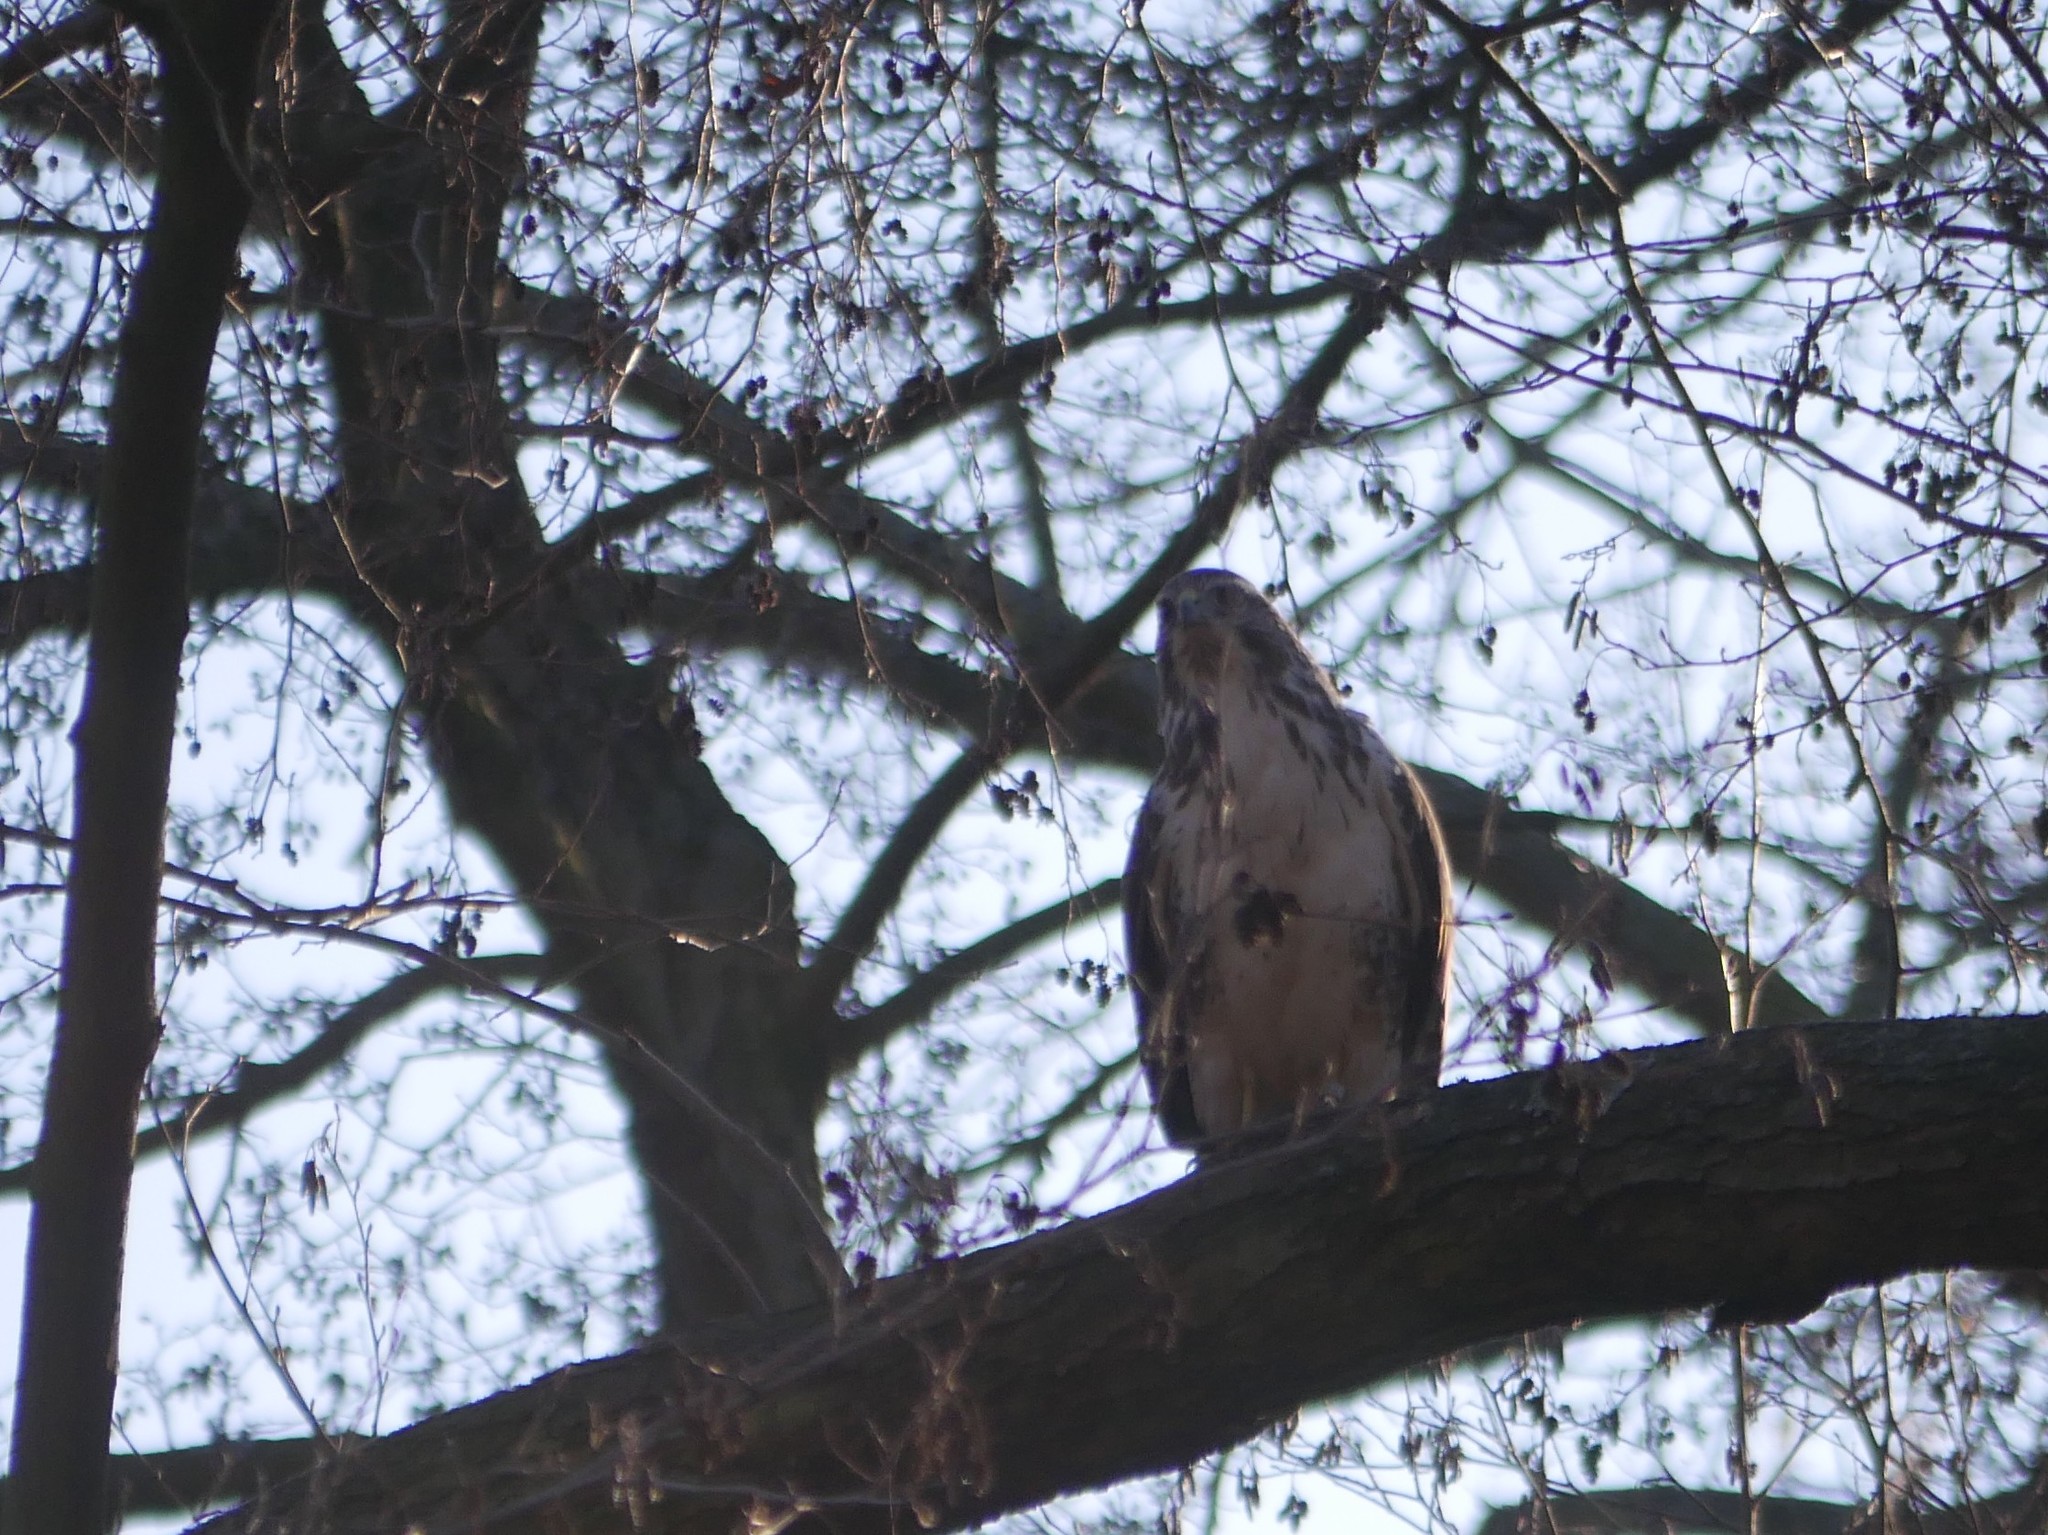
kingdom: Animalia
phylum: Chordata
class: Aves
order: Accipitriformes
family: Accipitridae
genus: Buteo
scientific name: Buteo buteo
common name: Common buzzard
